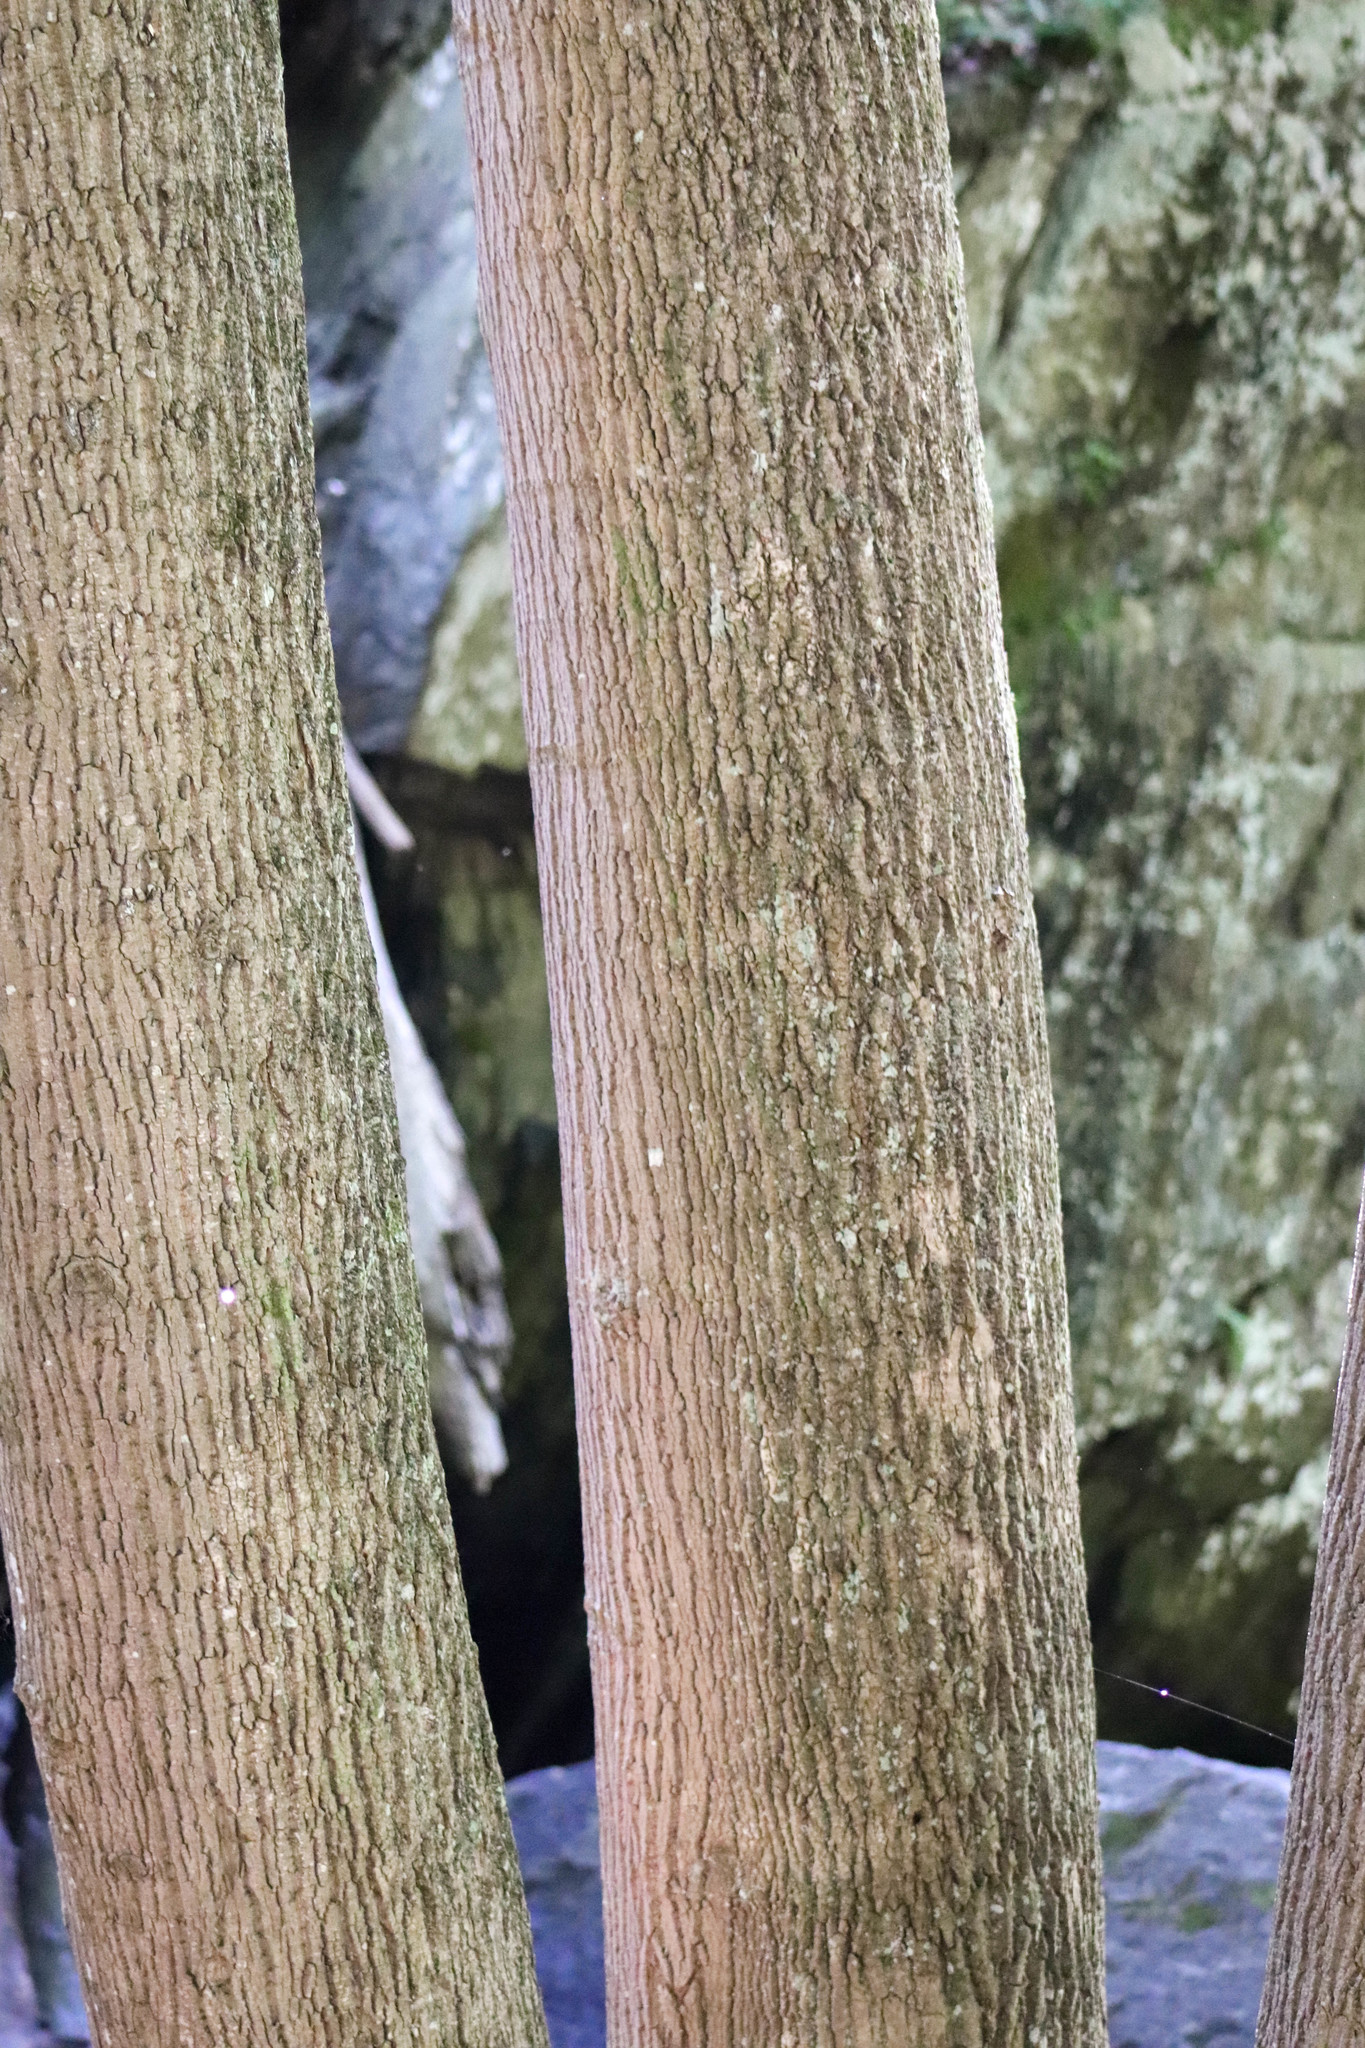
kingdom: Plantae
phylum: Tracheophyta
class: Magnoliopsida
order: Magnoliales
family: Magnoliaceae
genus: Liriodendron
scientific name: Liriodendron tulipifera
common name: Tulip tree
